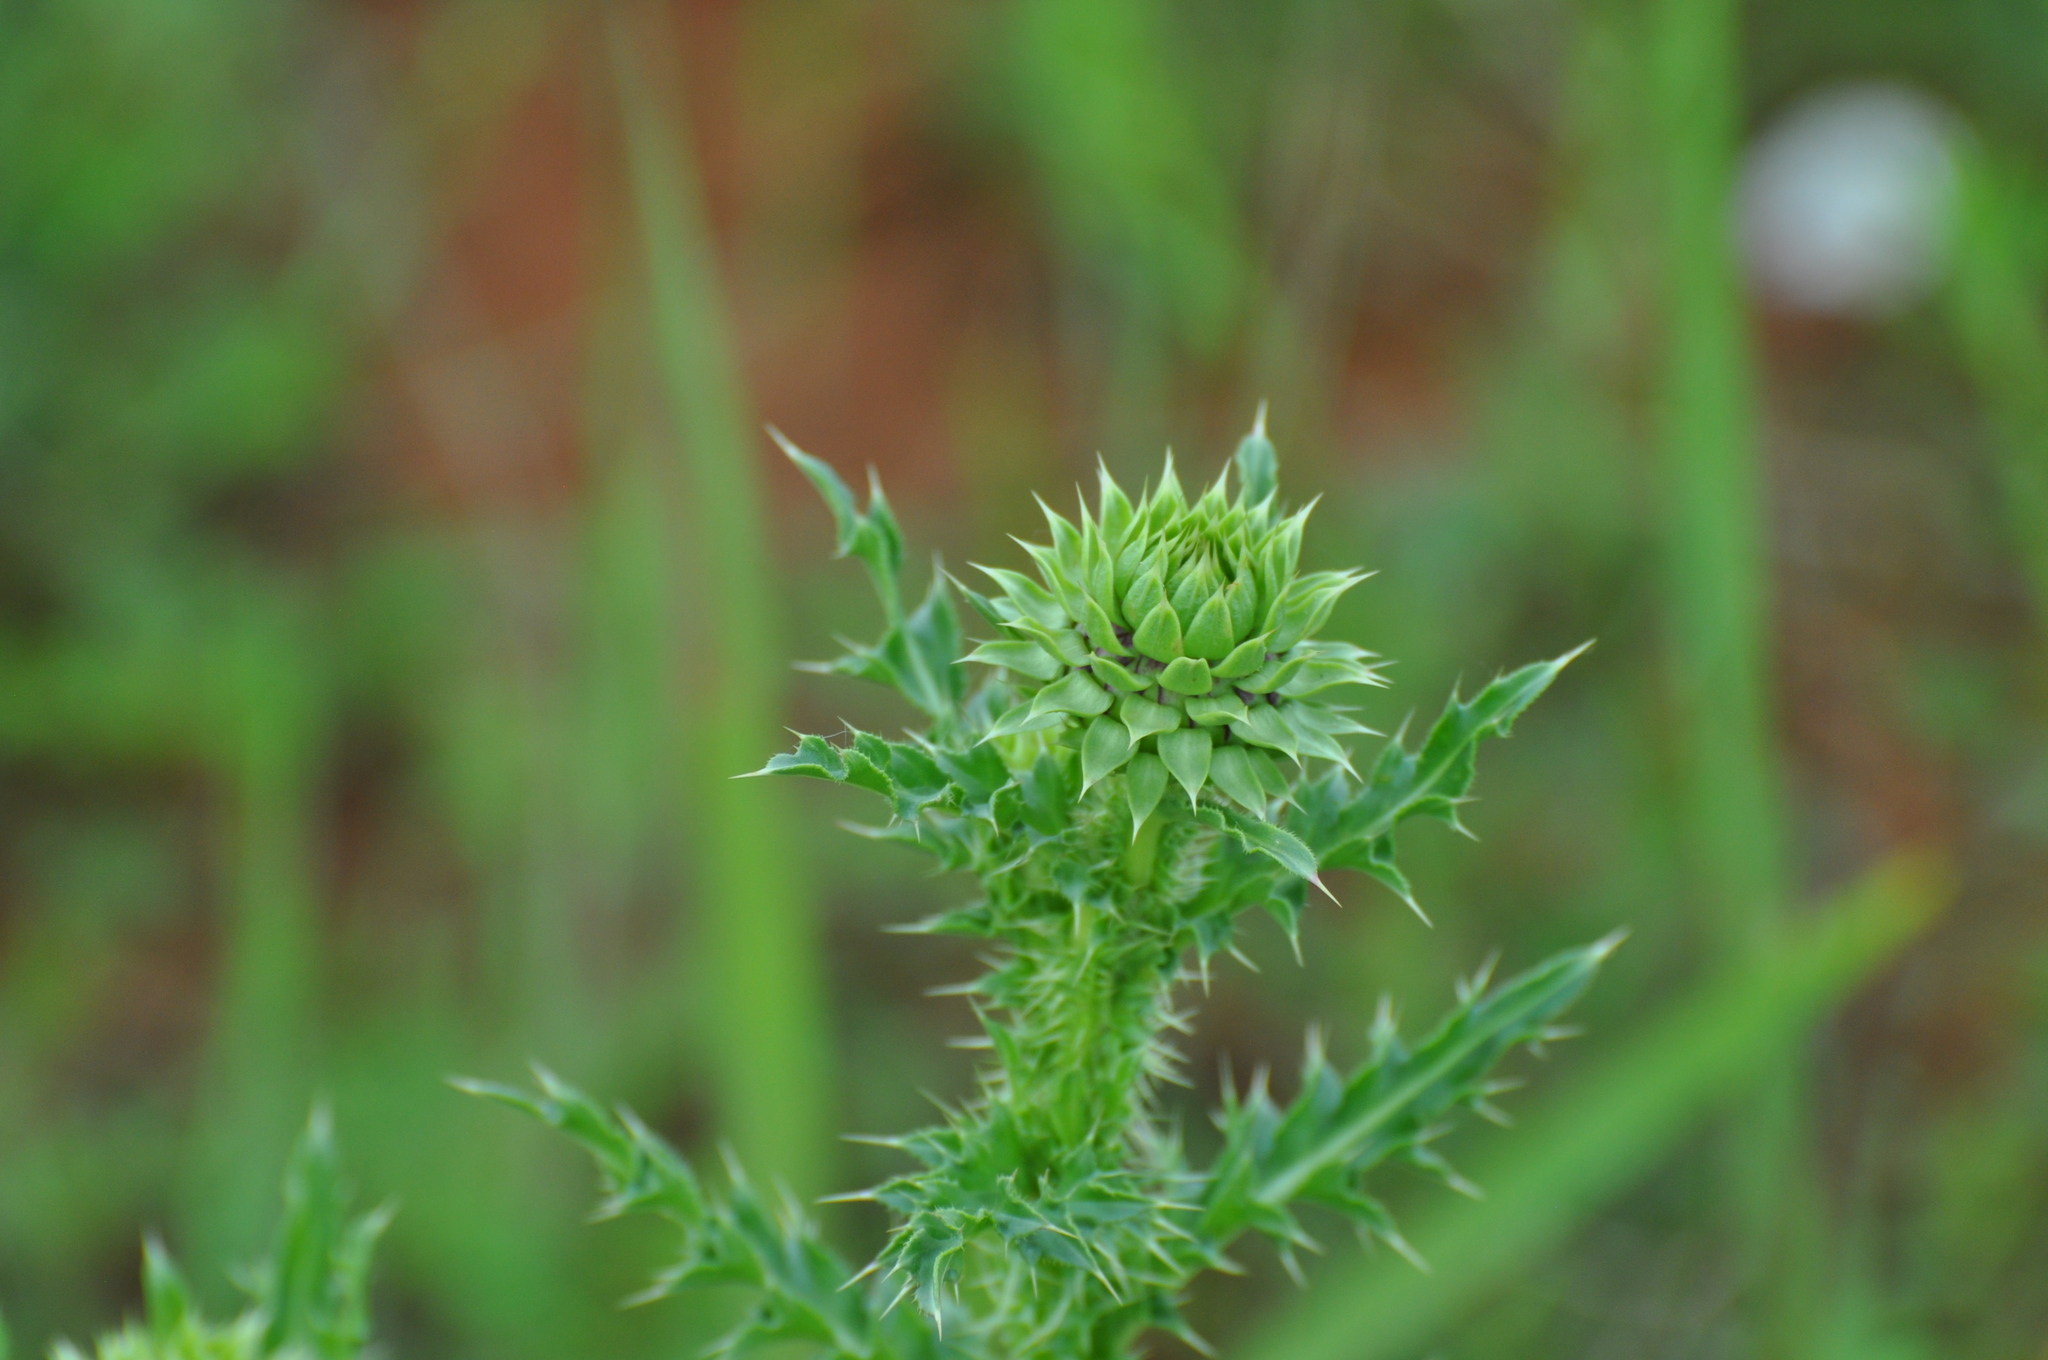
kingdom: Plantae
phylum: Tracheophyta
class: Magnoliopsida
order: Asterales
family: Asteraceae
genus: Carduus
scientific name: Carduus nutans
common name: Musk thistle
